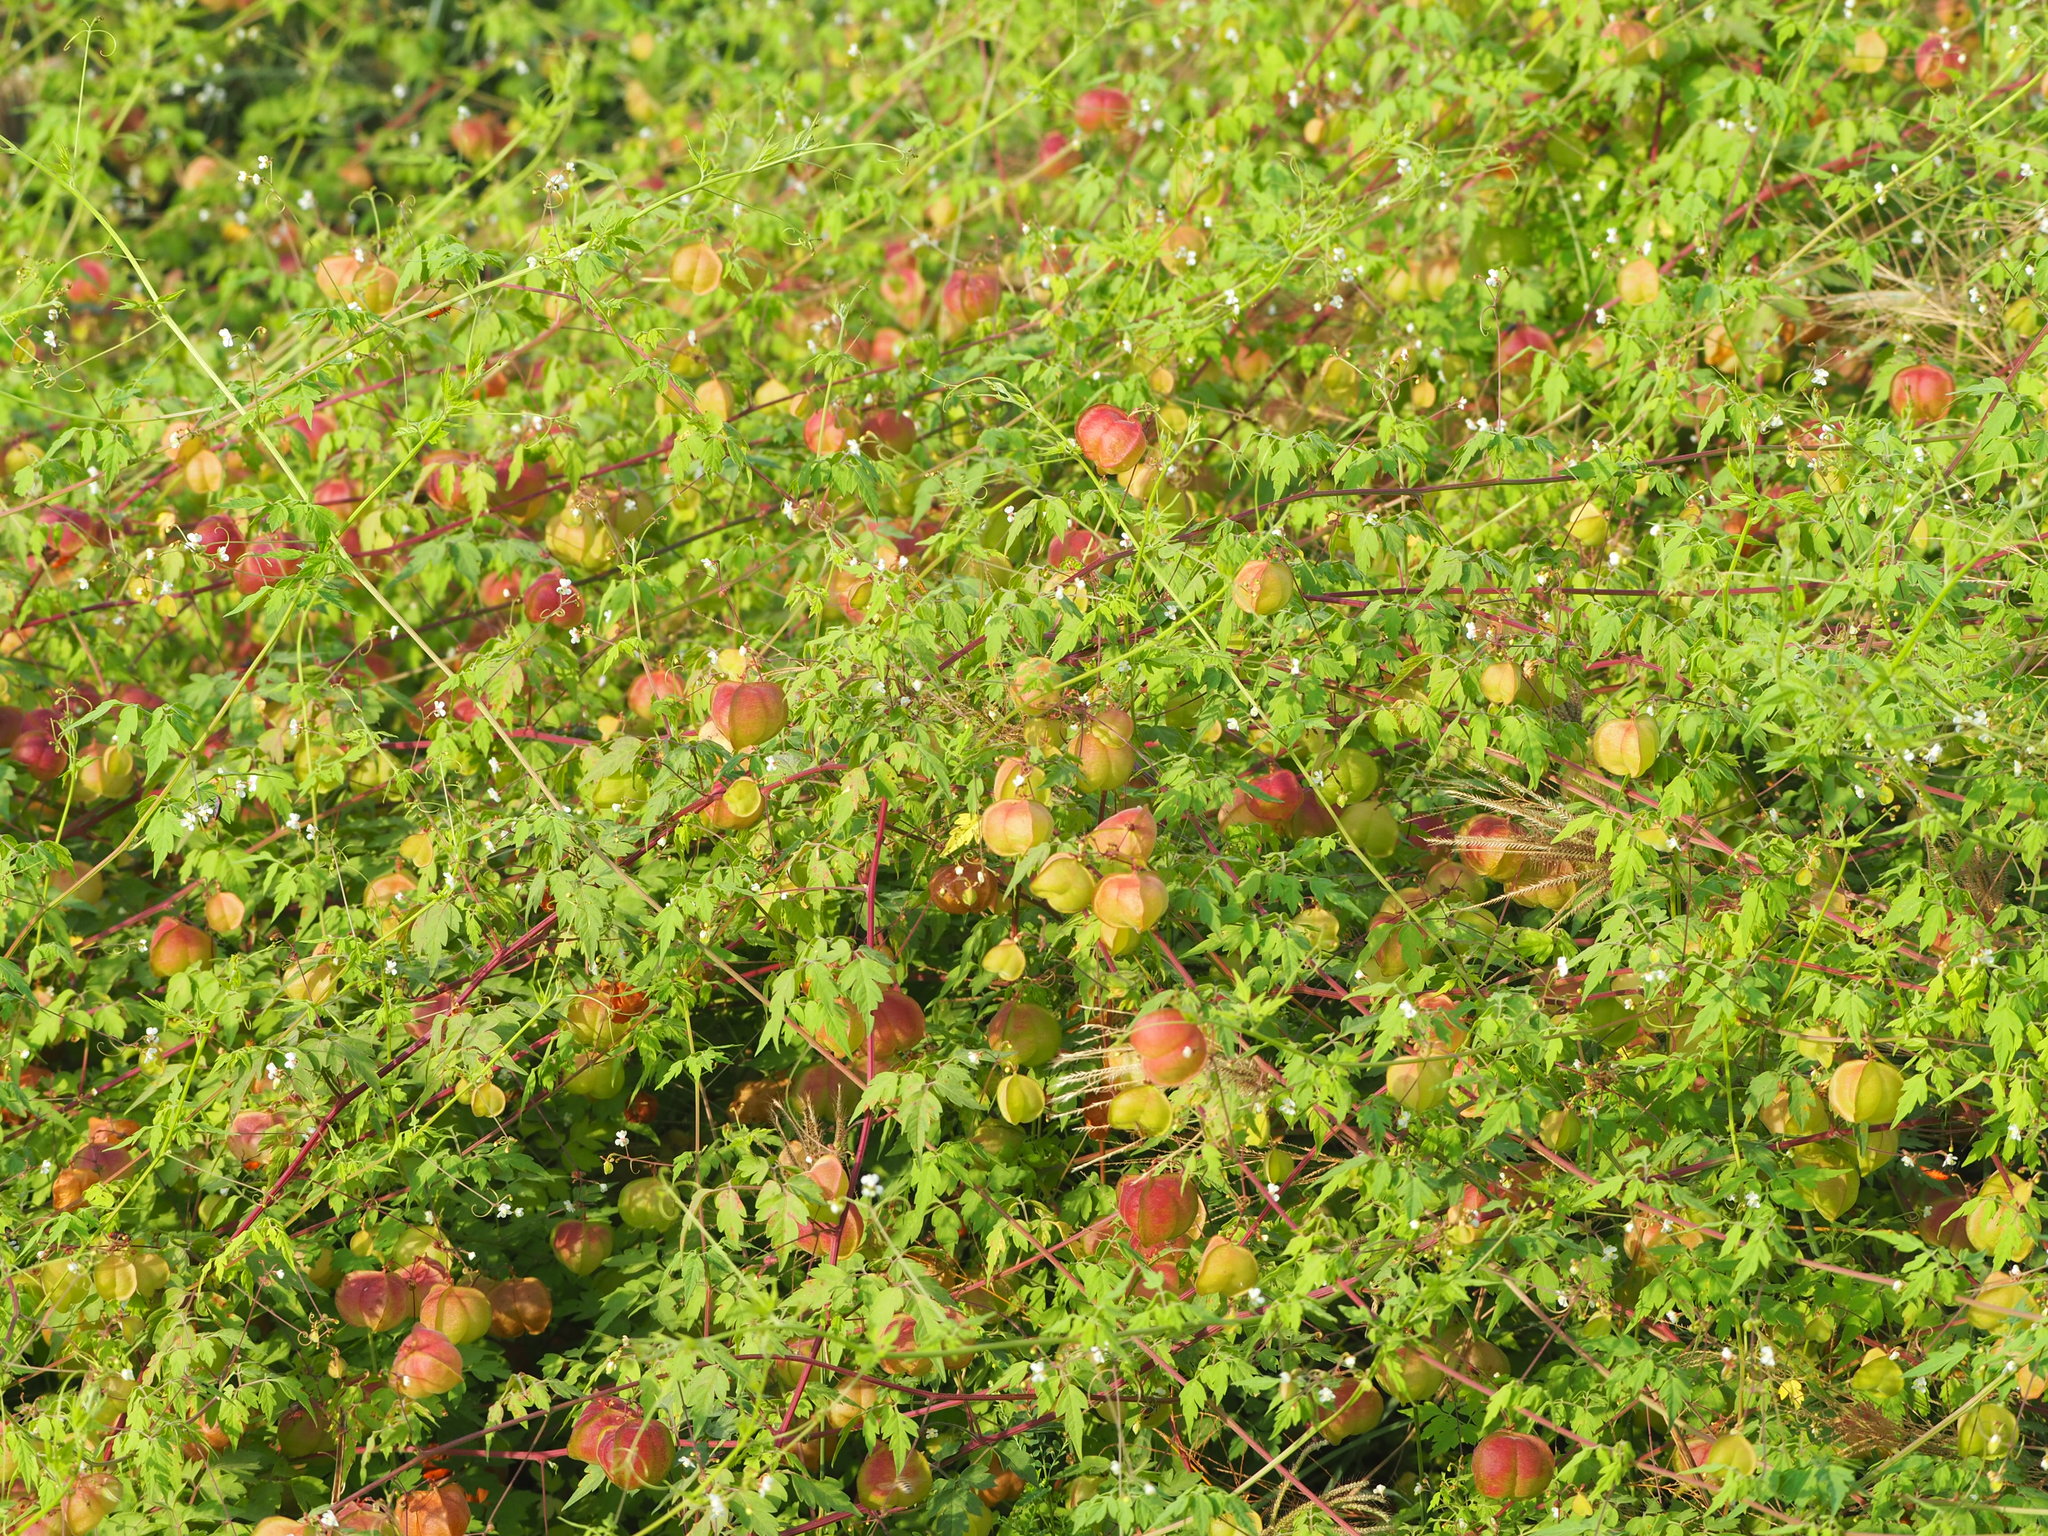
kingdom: Plantae
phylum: Tracheophyta
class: Magnoliopsida
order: Sapindales
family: Sapindaceae
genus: Cardiospermum
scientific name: Cardiospermum halicacabum
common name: Balloon vine
